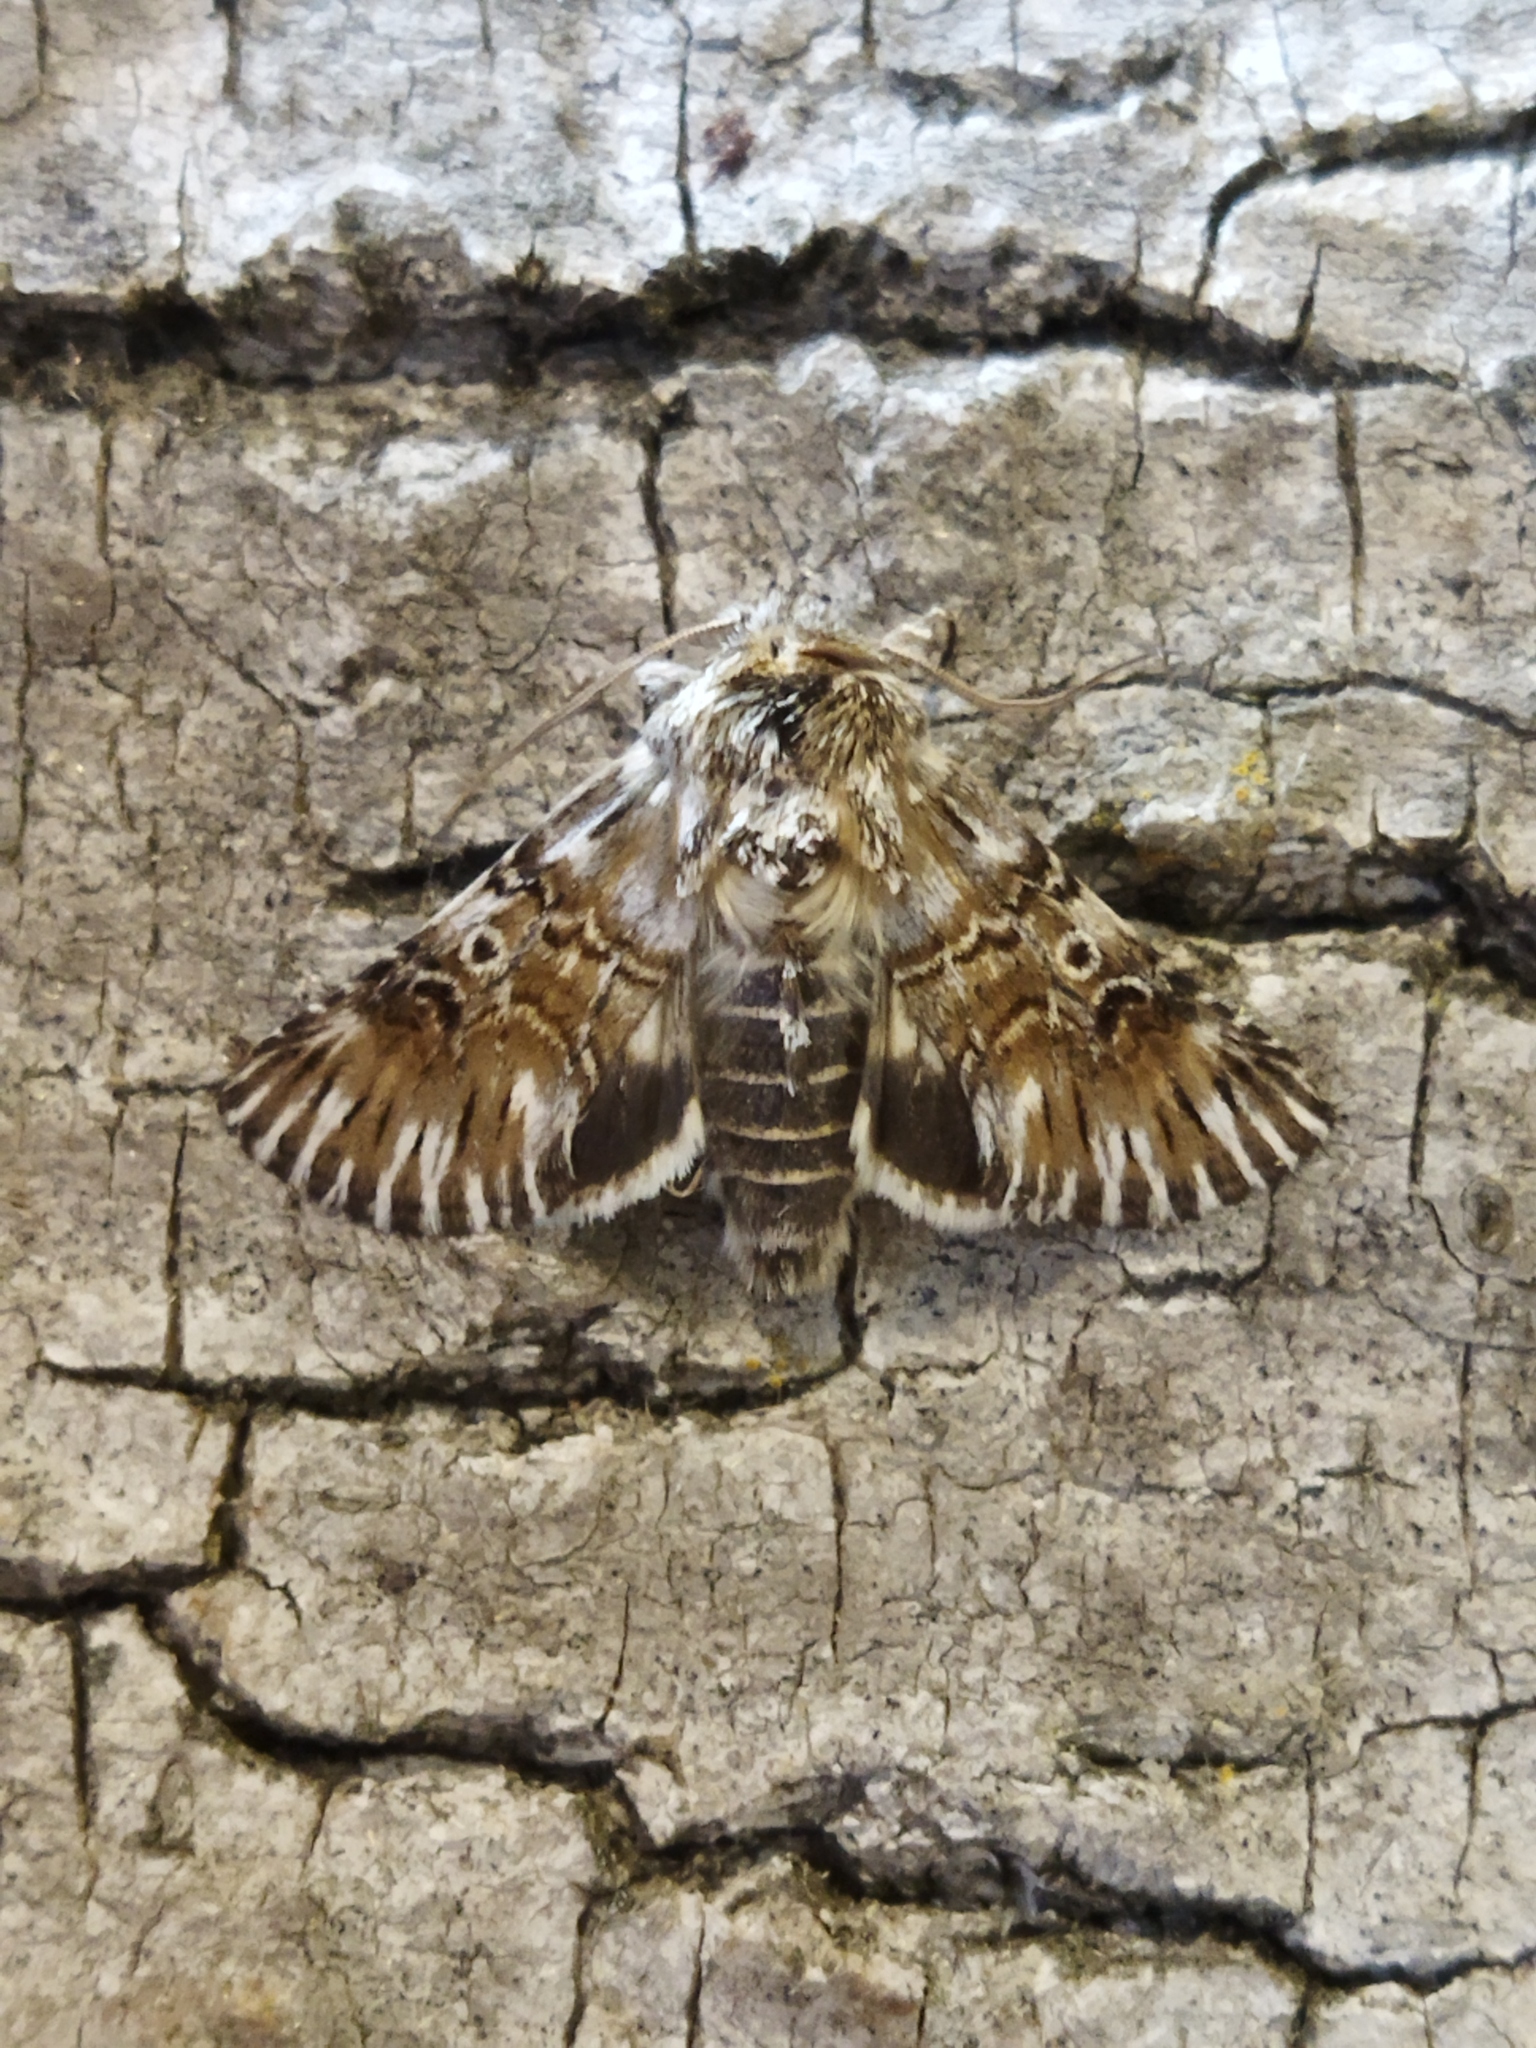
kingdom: Animalia
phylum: Arthropoda
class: Insecta
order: Lepidoptera
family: Noctuidae
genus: Omphalophana
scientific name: Omphalophana antirrhinii
